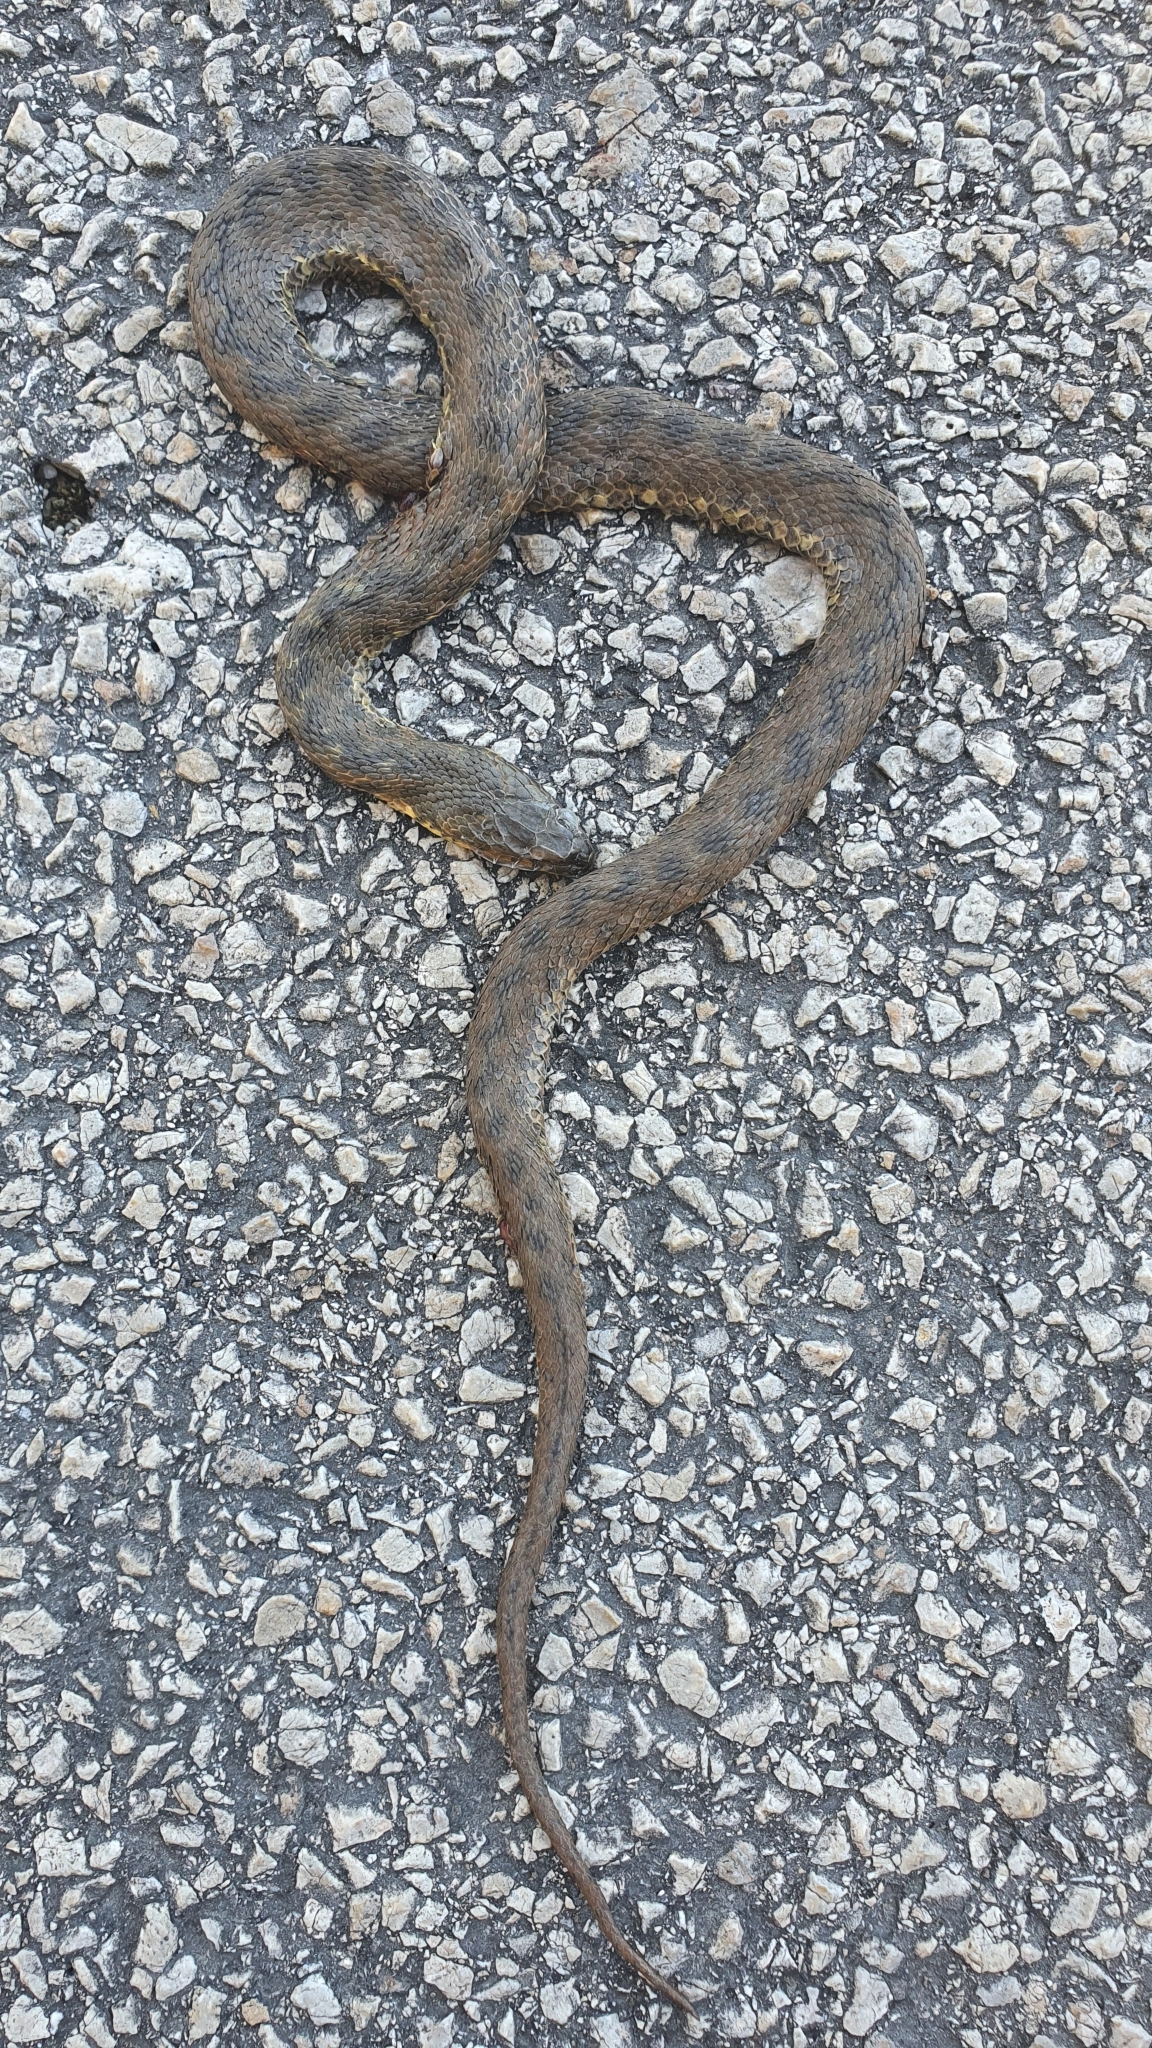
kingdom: Animalia
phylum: Chordata
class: Squamata
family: Colubridae
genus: Natrix
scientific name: Natrix maura
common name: Viperine water snake
